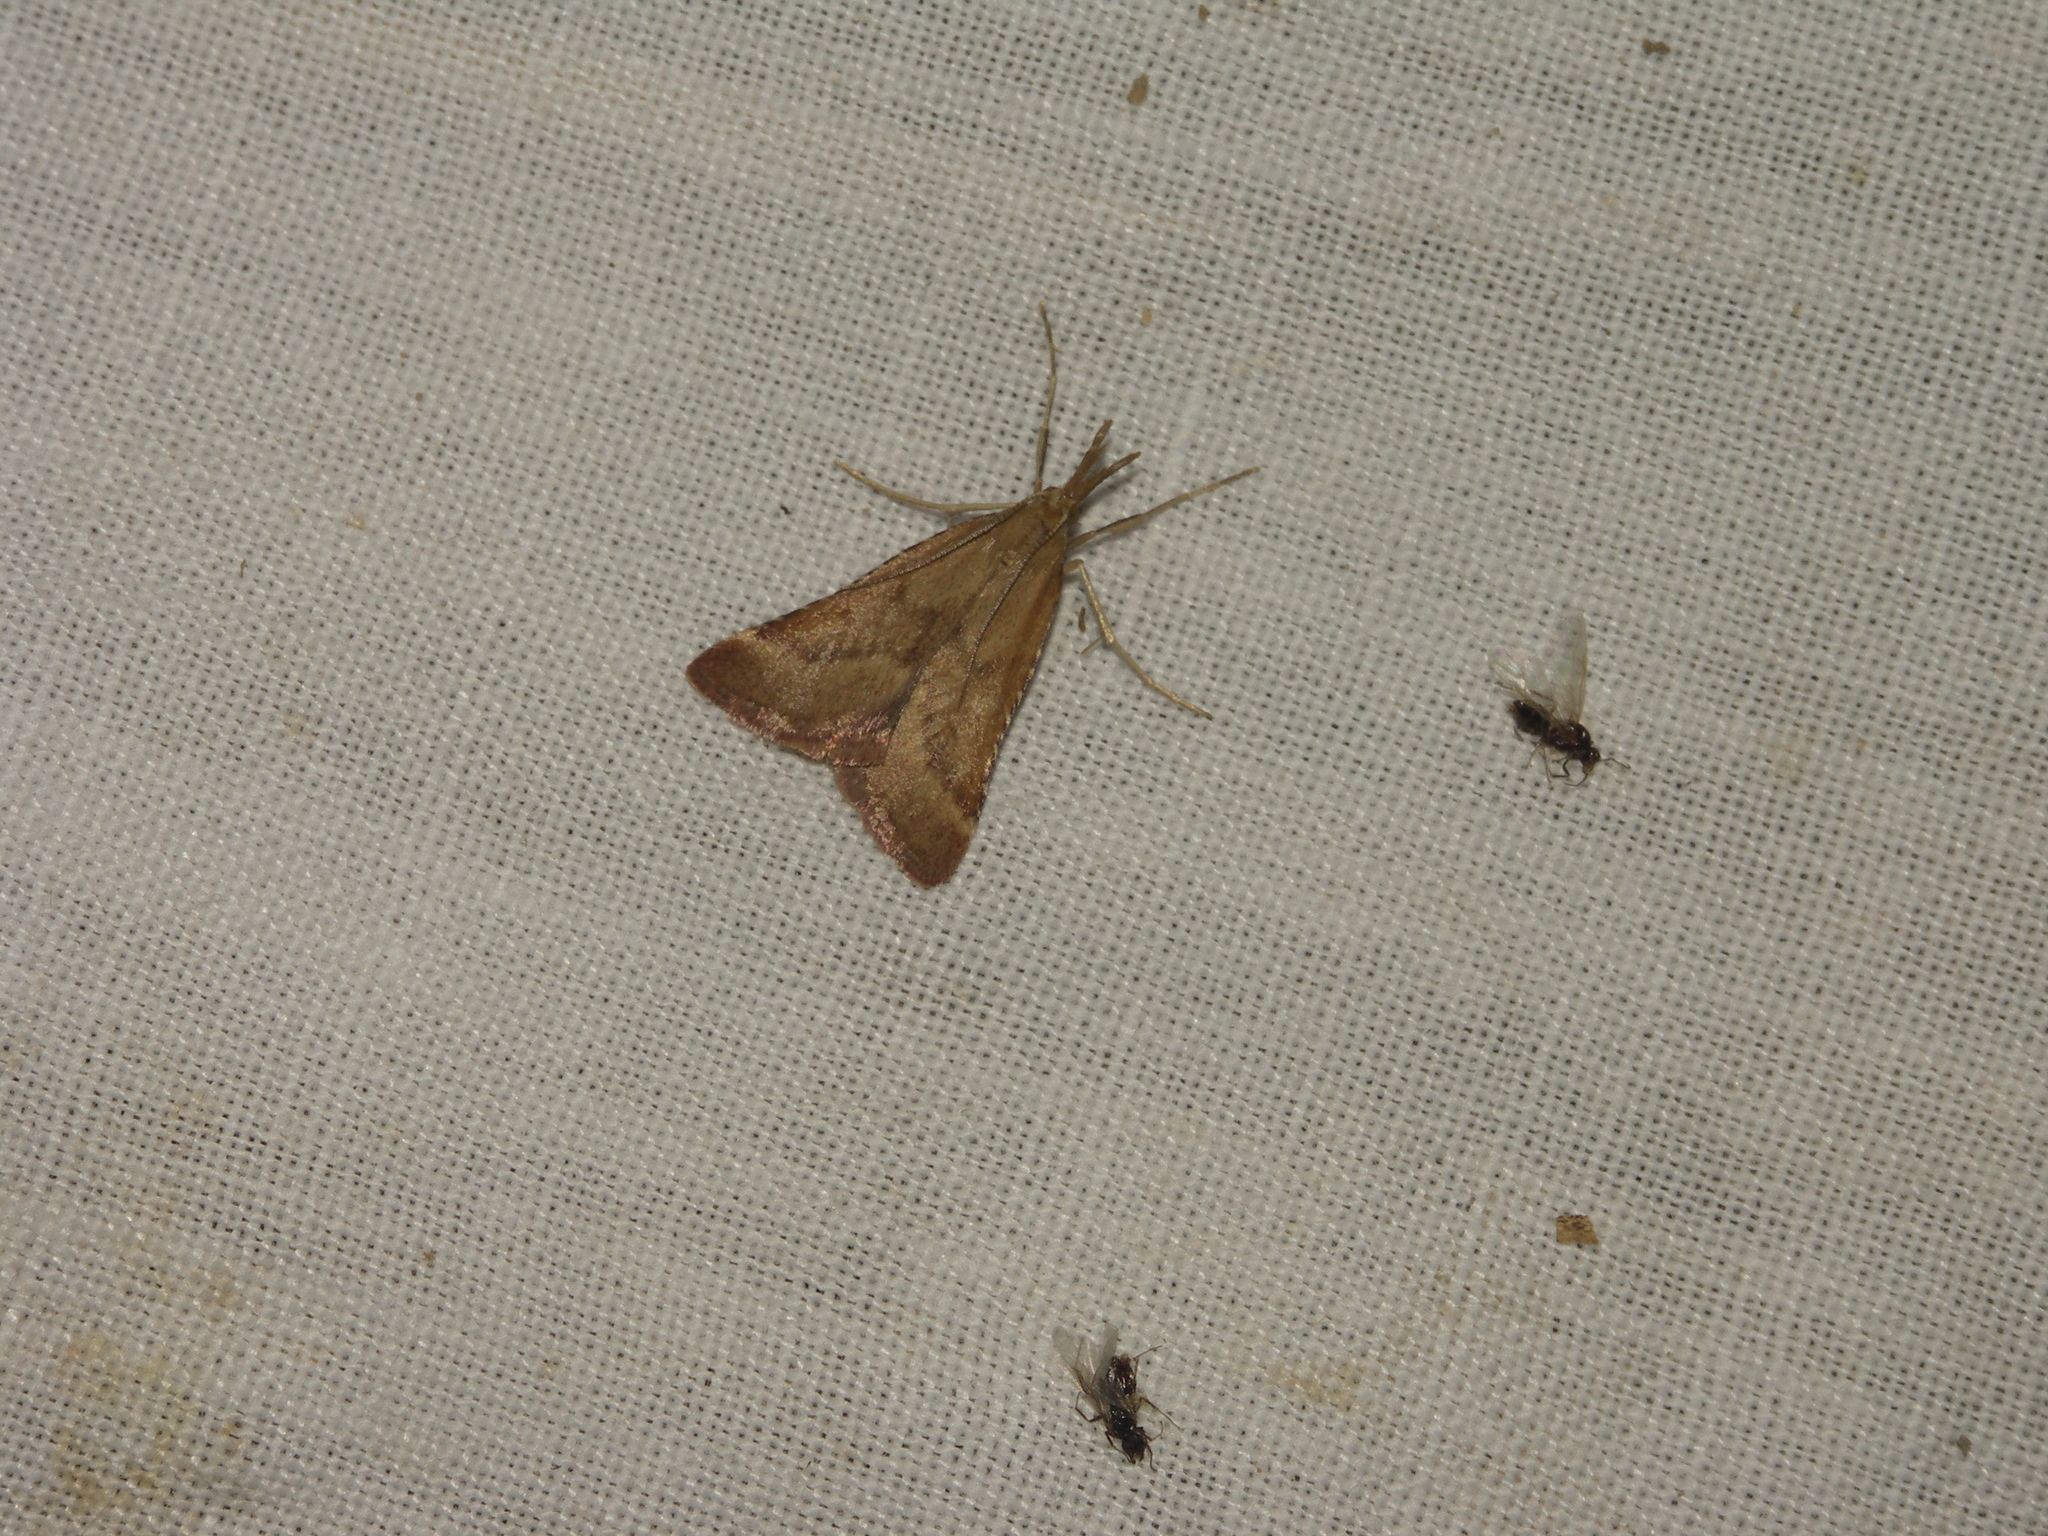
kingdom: Animalia
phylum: Arthropoda
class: Insecta
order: Lepidoptera
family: Pyralidae
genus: Synaphe
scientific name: Synaphe punctalis
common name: Long-legged tabby
